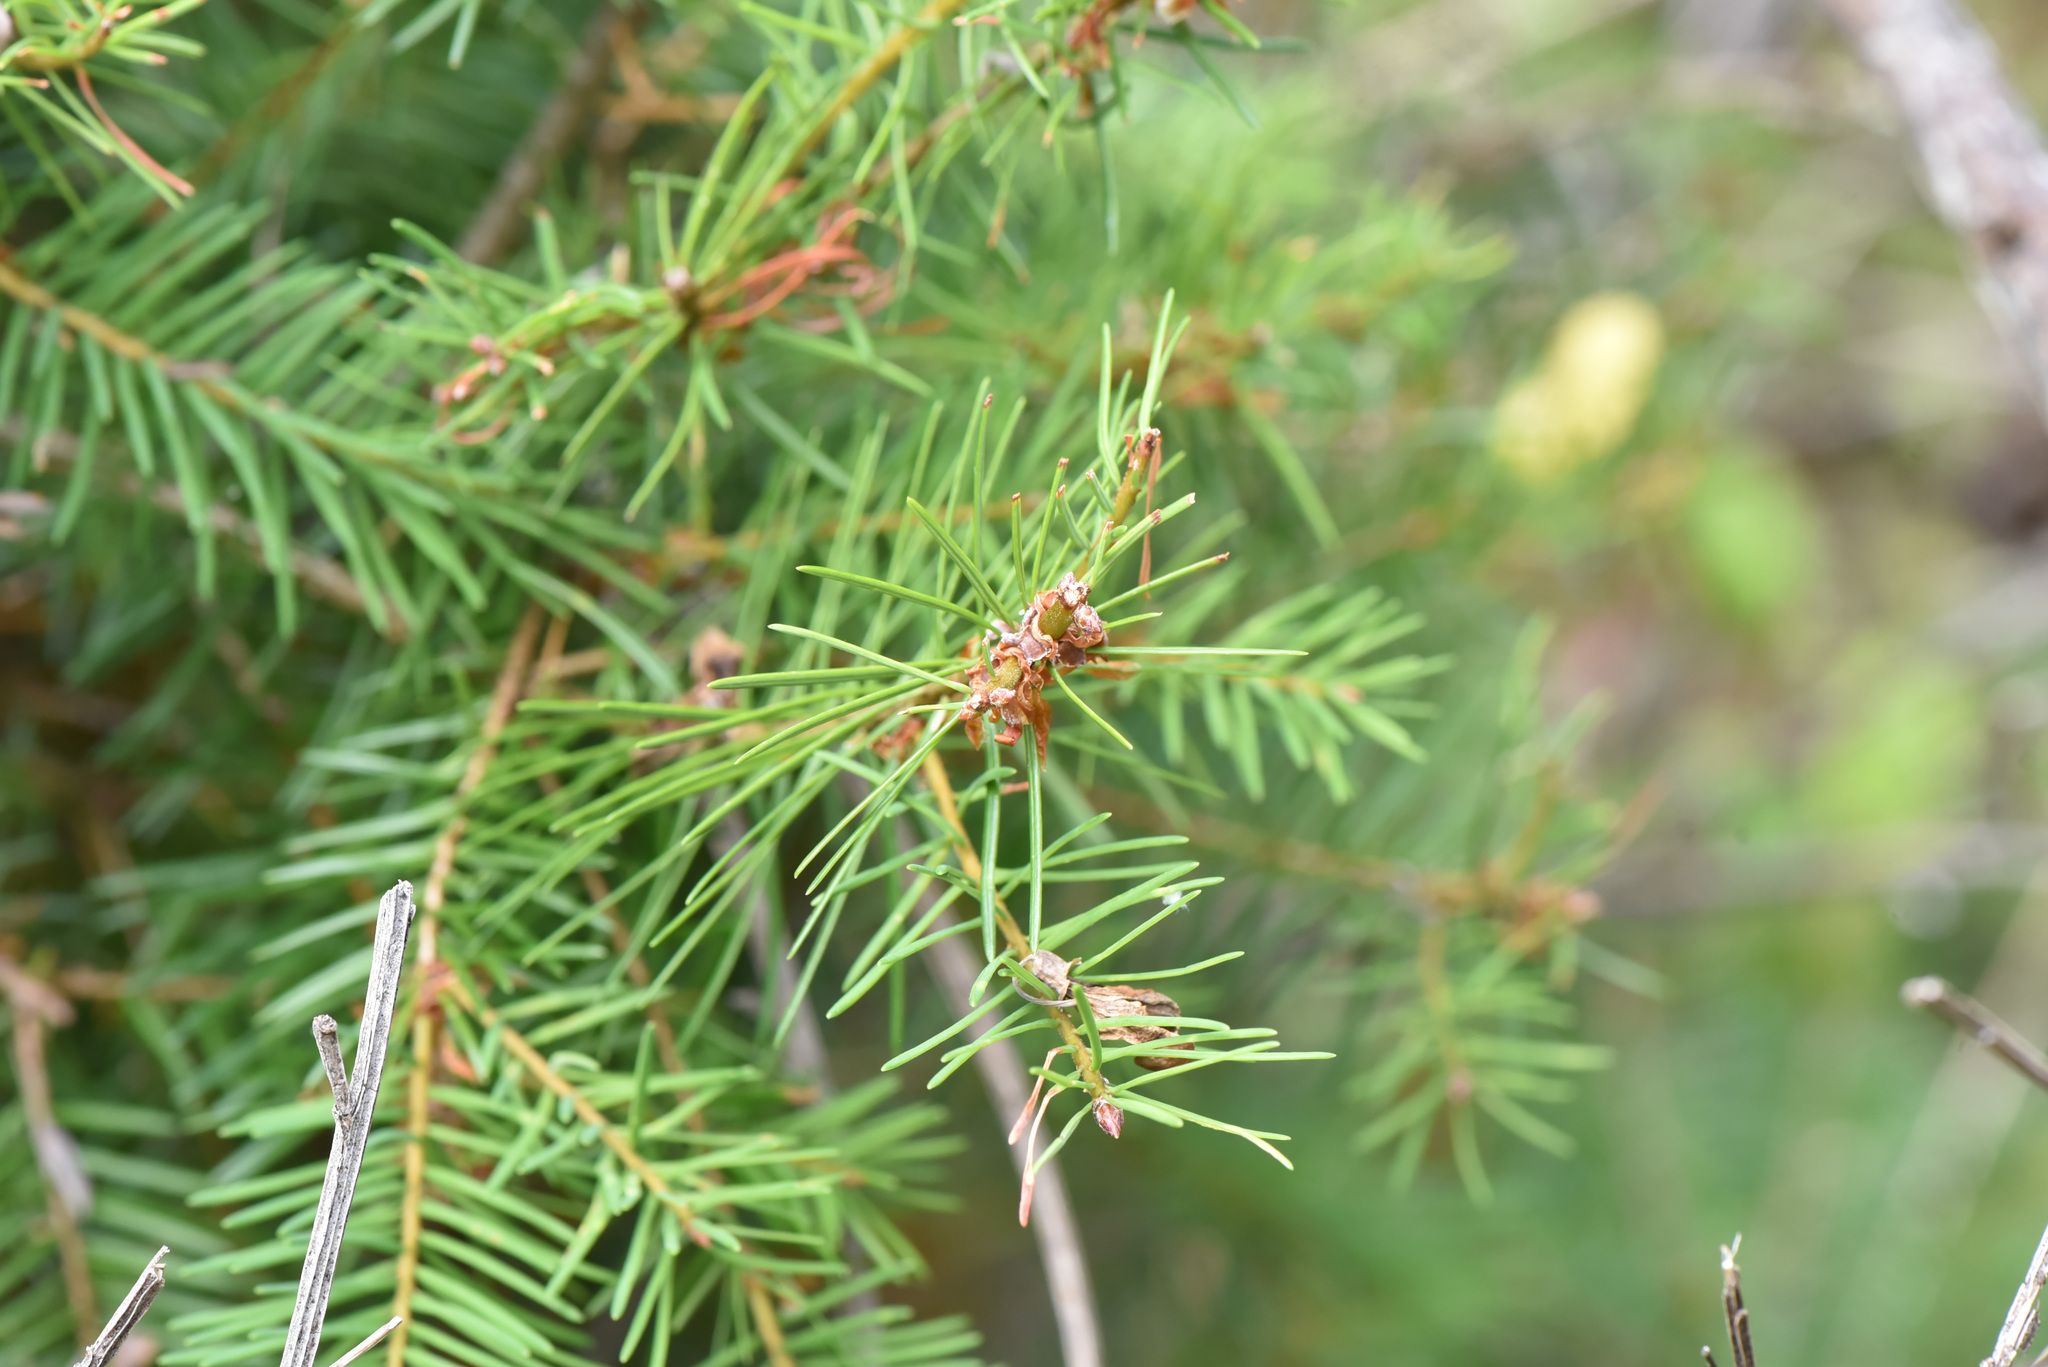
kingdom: Plantae
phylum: Tracheophyta
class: Pinopsida
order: Pinales
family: Pinaceae
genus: Pseudotsuga
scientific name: Pseudotsuga menziesii
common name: Douglas fir
